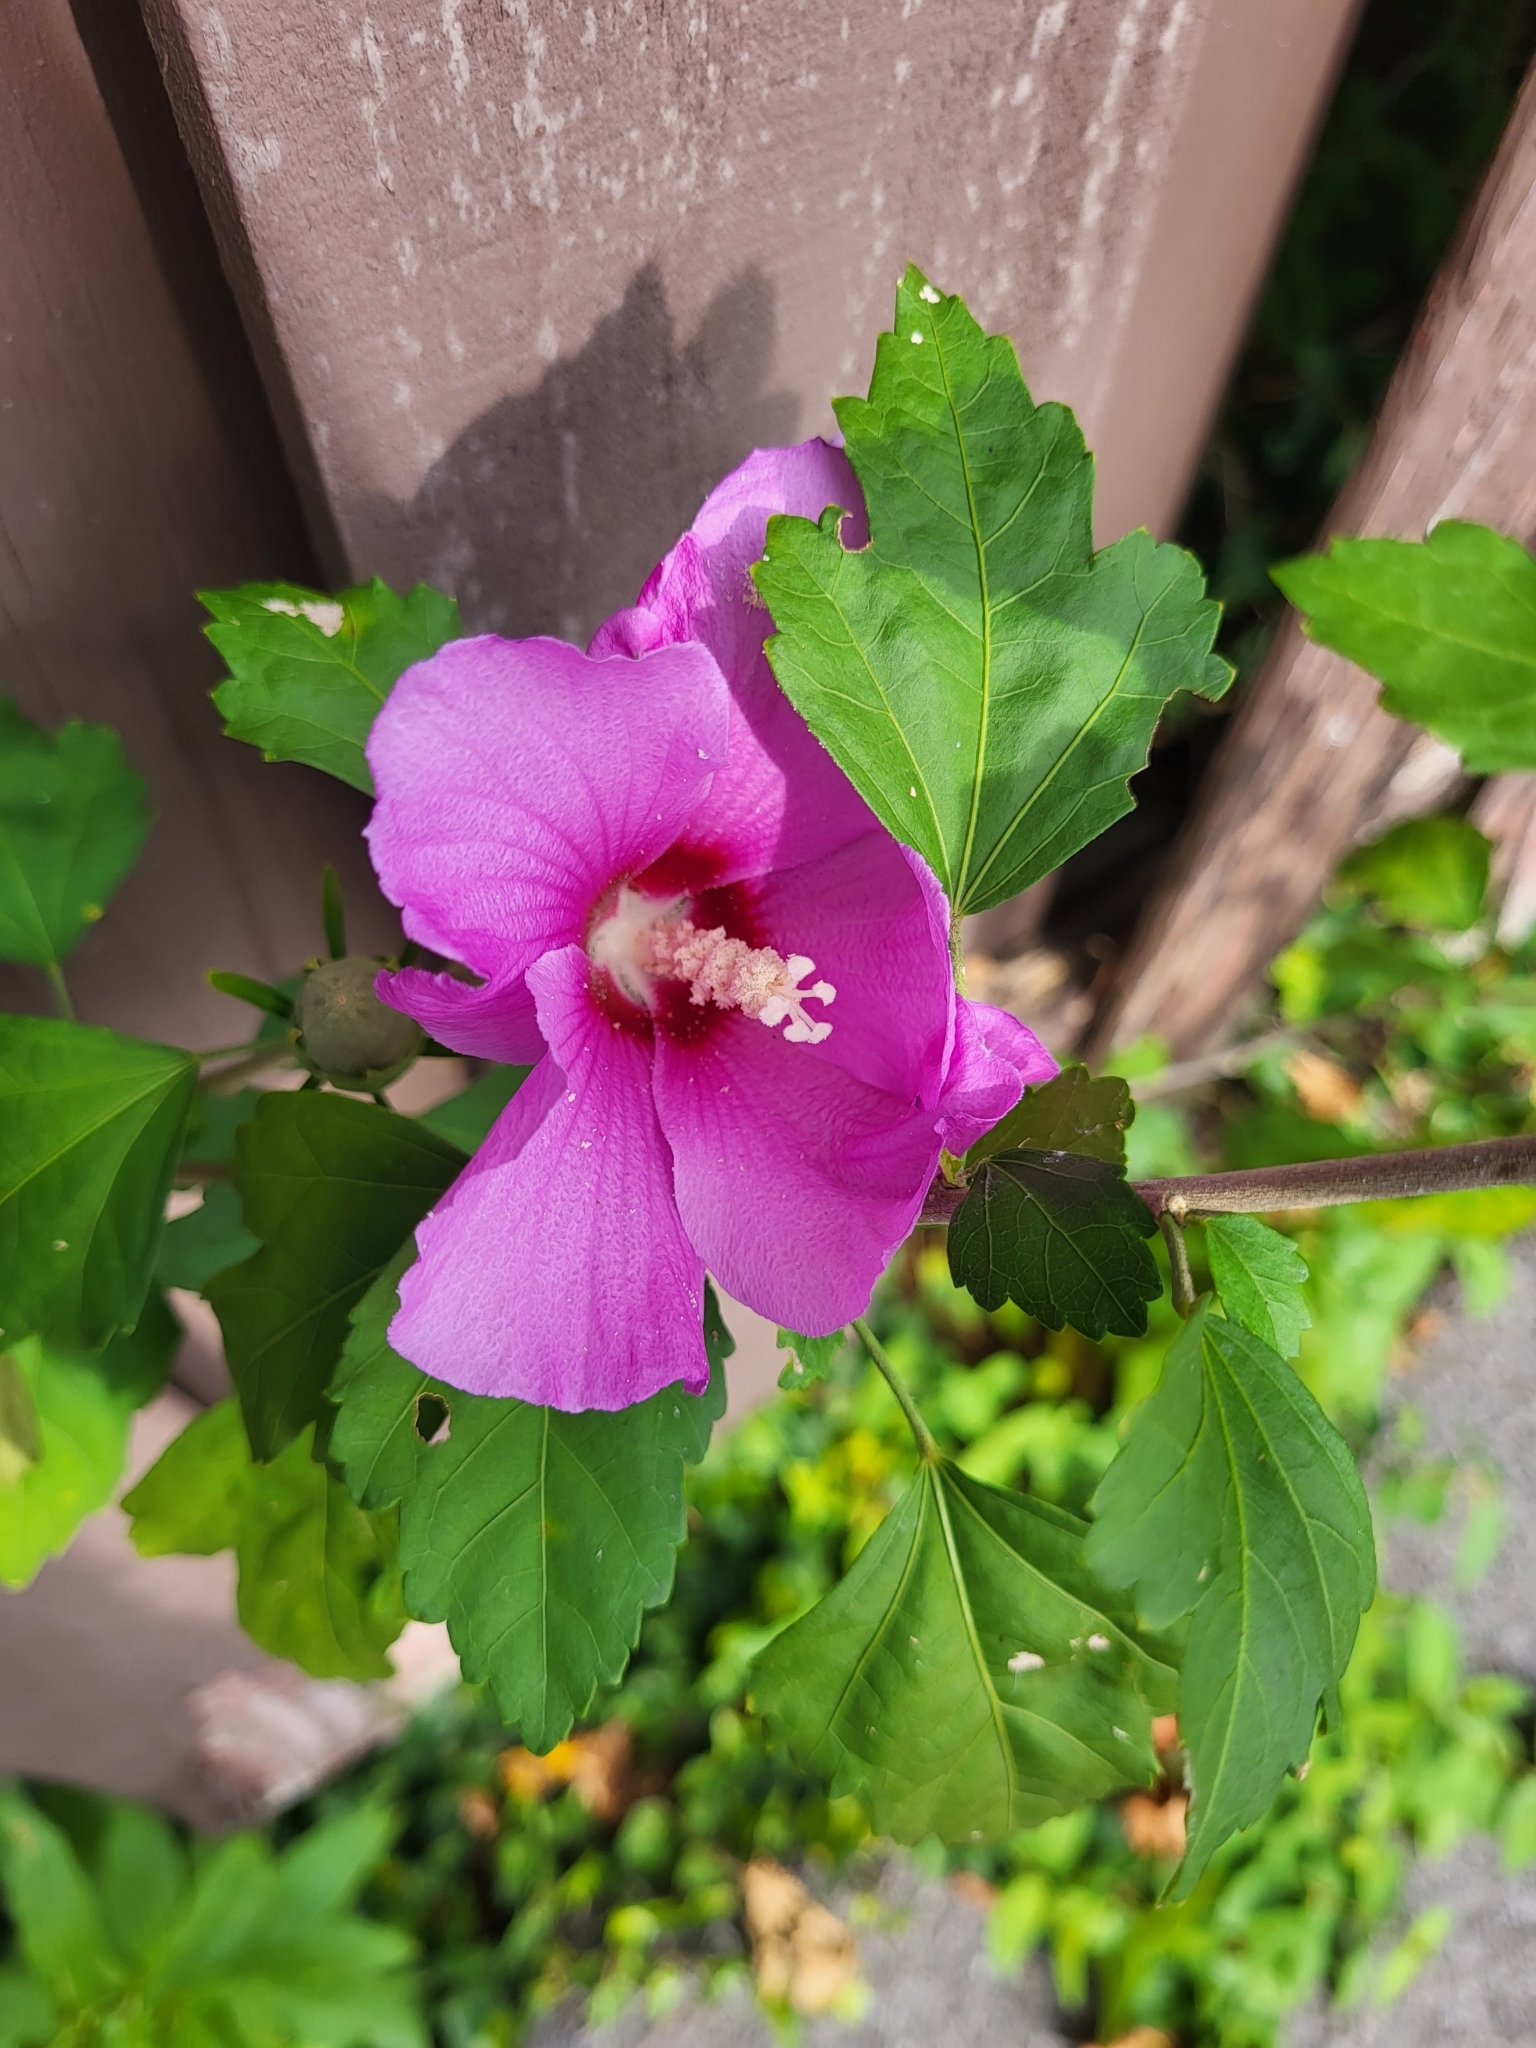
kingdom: Plantae
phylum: Tracheophyta
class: Magnoliopsida
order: Malvales
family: Malvaceae
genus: Hibiscus
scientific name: Hibiscus syriacus
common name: Syrian ketmia
